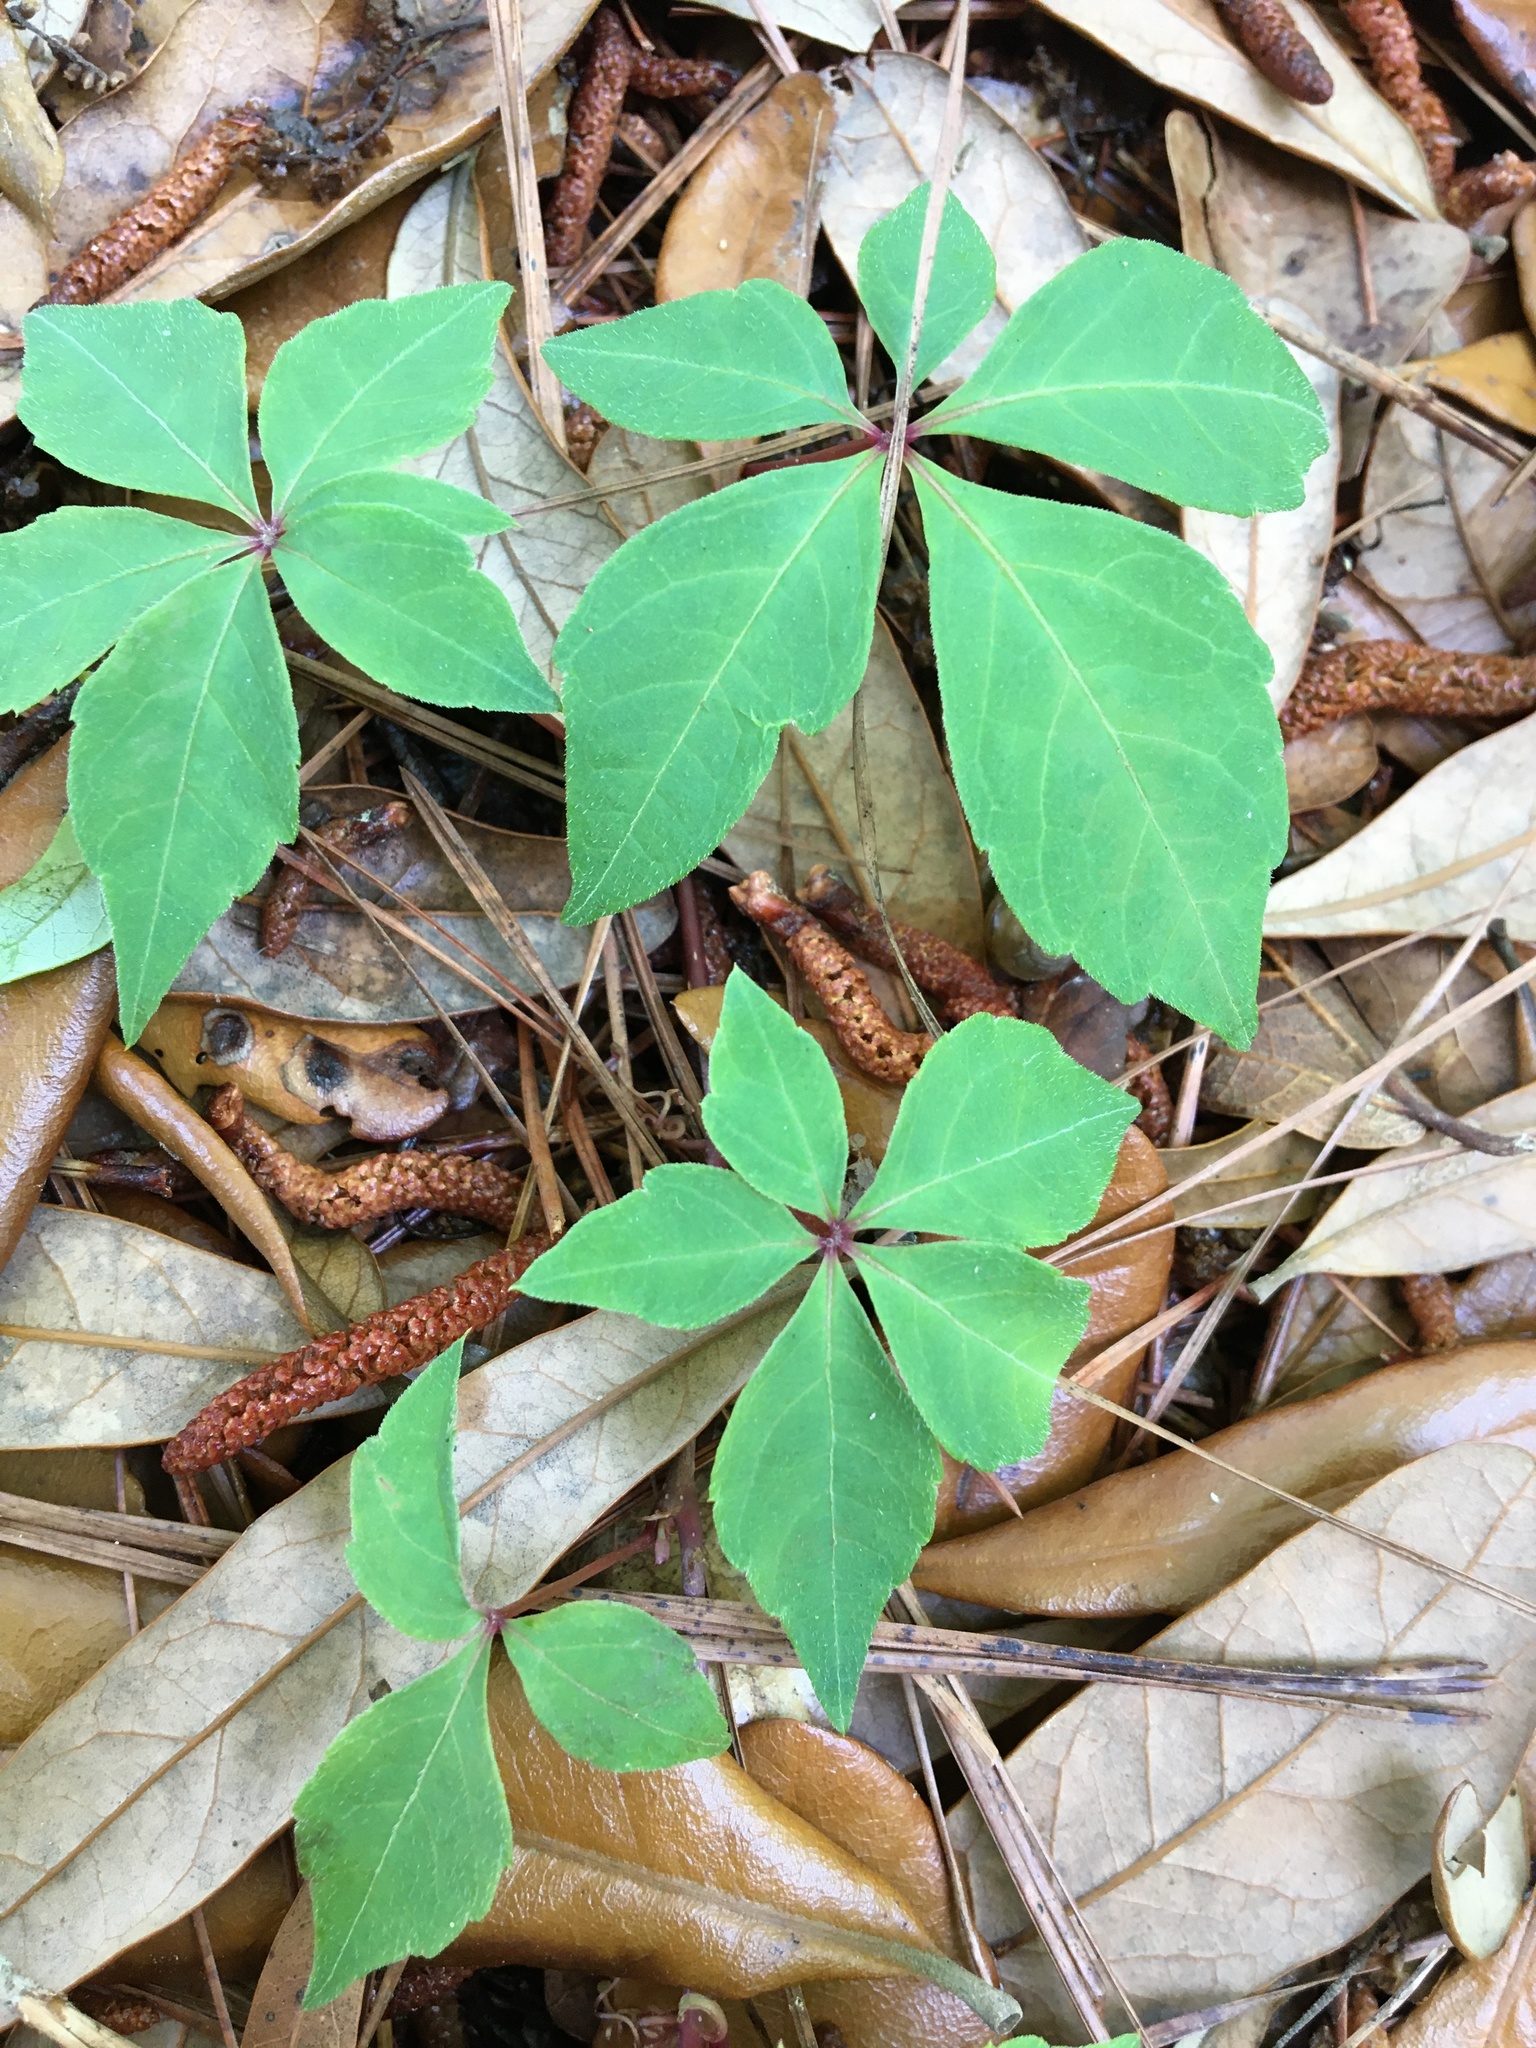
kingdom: Plantae
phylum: Tracheophyta
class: Magnoliopsida
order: Vitales
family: Vitaceae
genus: Parthenocissus
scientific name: Parthenocissus quinquefolia
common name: Virginia-creeper
